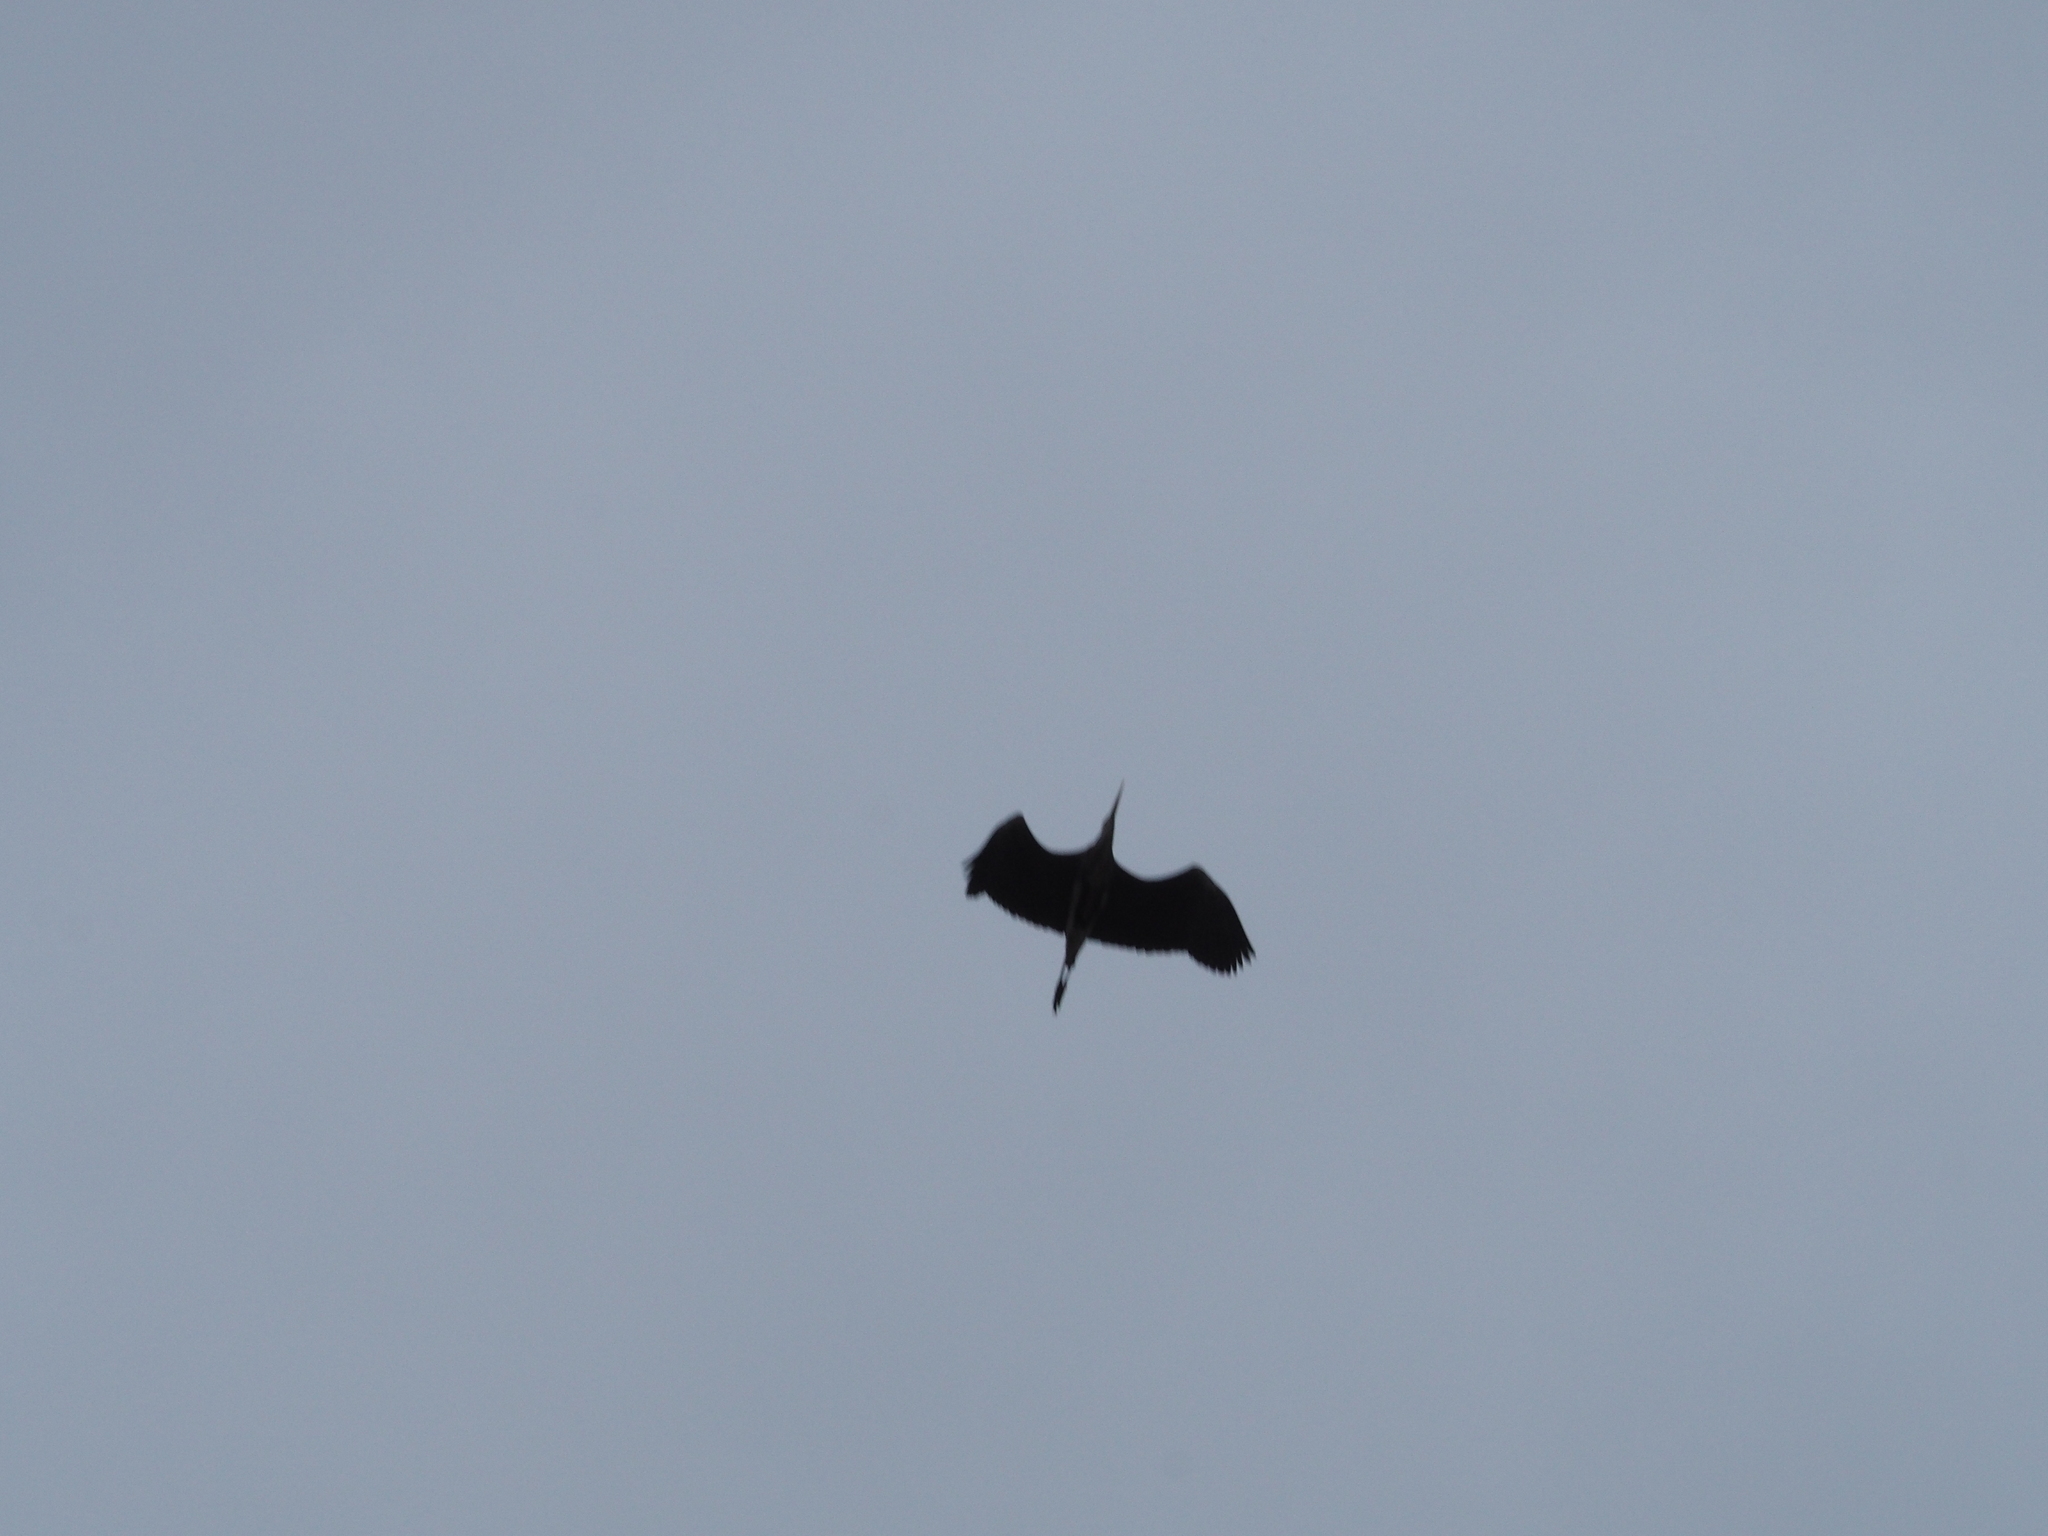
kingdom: Animalia
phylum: Chordata
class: Aves
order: Pelecaniformes
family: Ardeidae
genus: Ardea
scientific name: Ardea cinerea
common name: Grey heron
